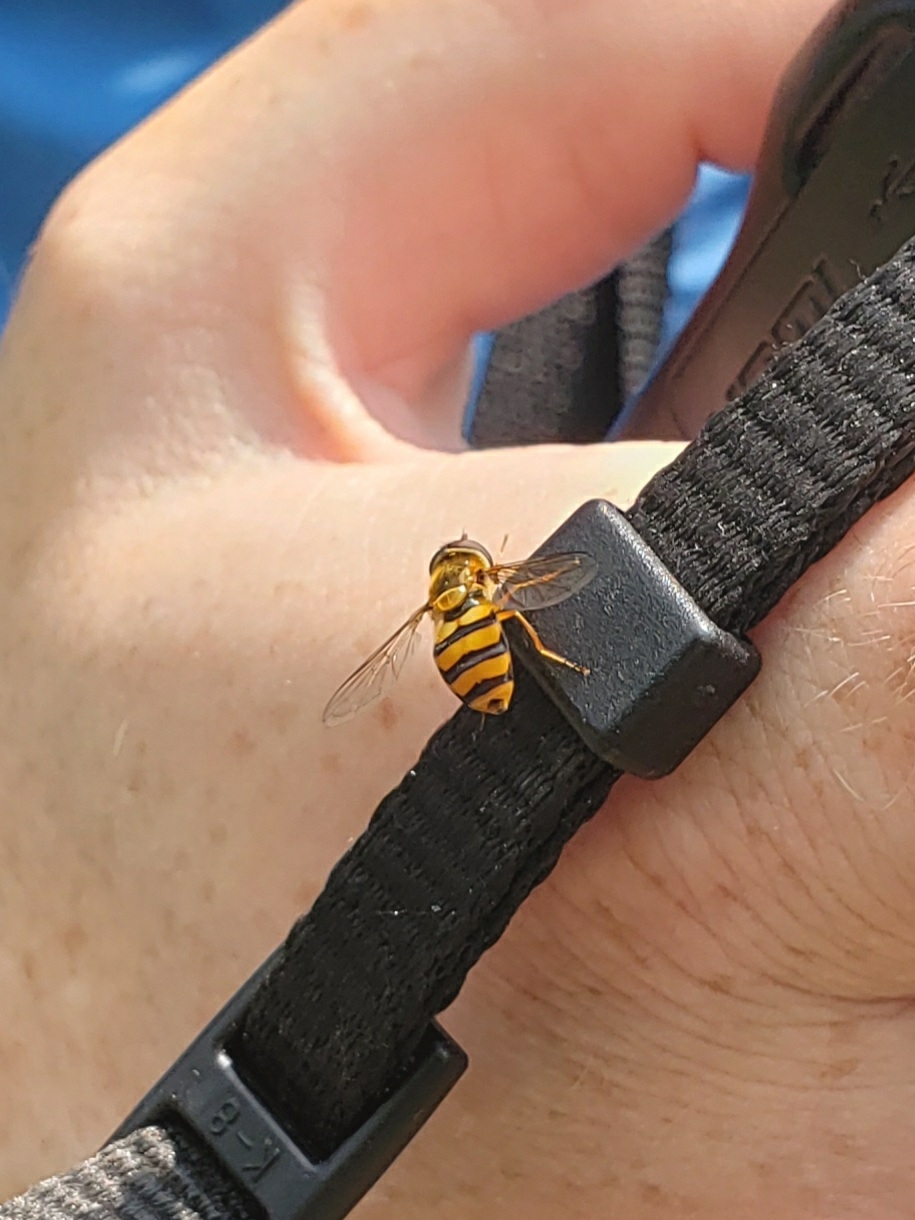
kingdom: Animalia
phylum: Arthropoda
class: Insecta
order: Diptera
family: Syrphidae
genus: Eupeodes
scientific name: Eupeodes latifasciatus
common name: Variable aphideater
